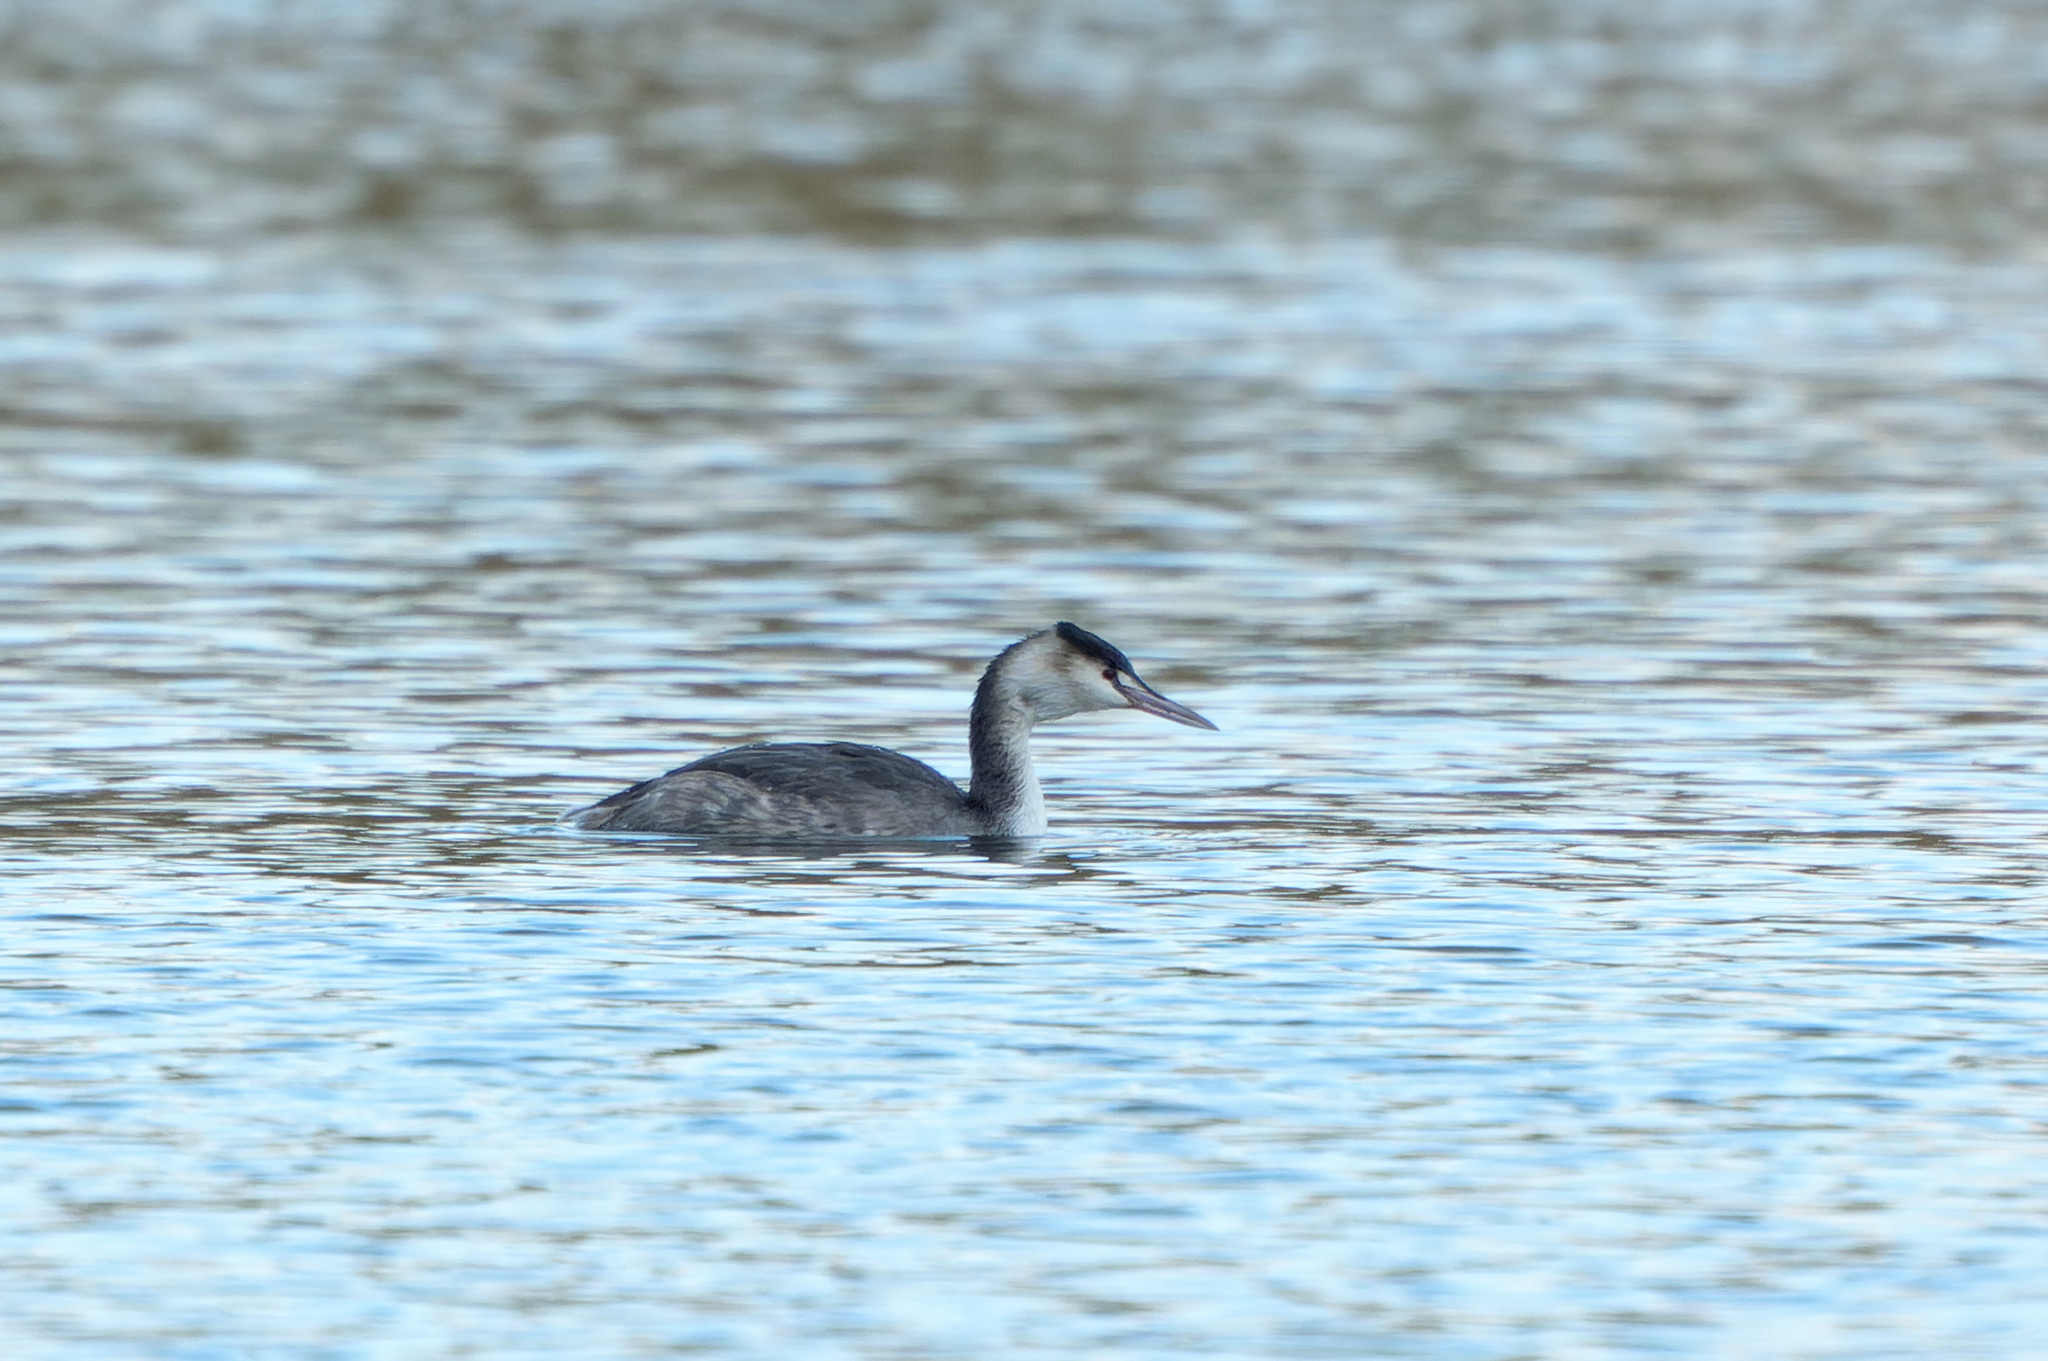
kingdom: Animalia
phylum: Chordata
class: Aves
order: Podicipediformes
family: Podicipedidae
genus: Podiceps
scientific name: Podiceps cristatus
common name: Great crested grebe
